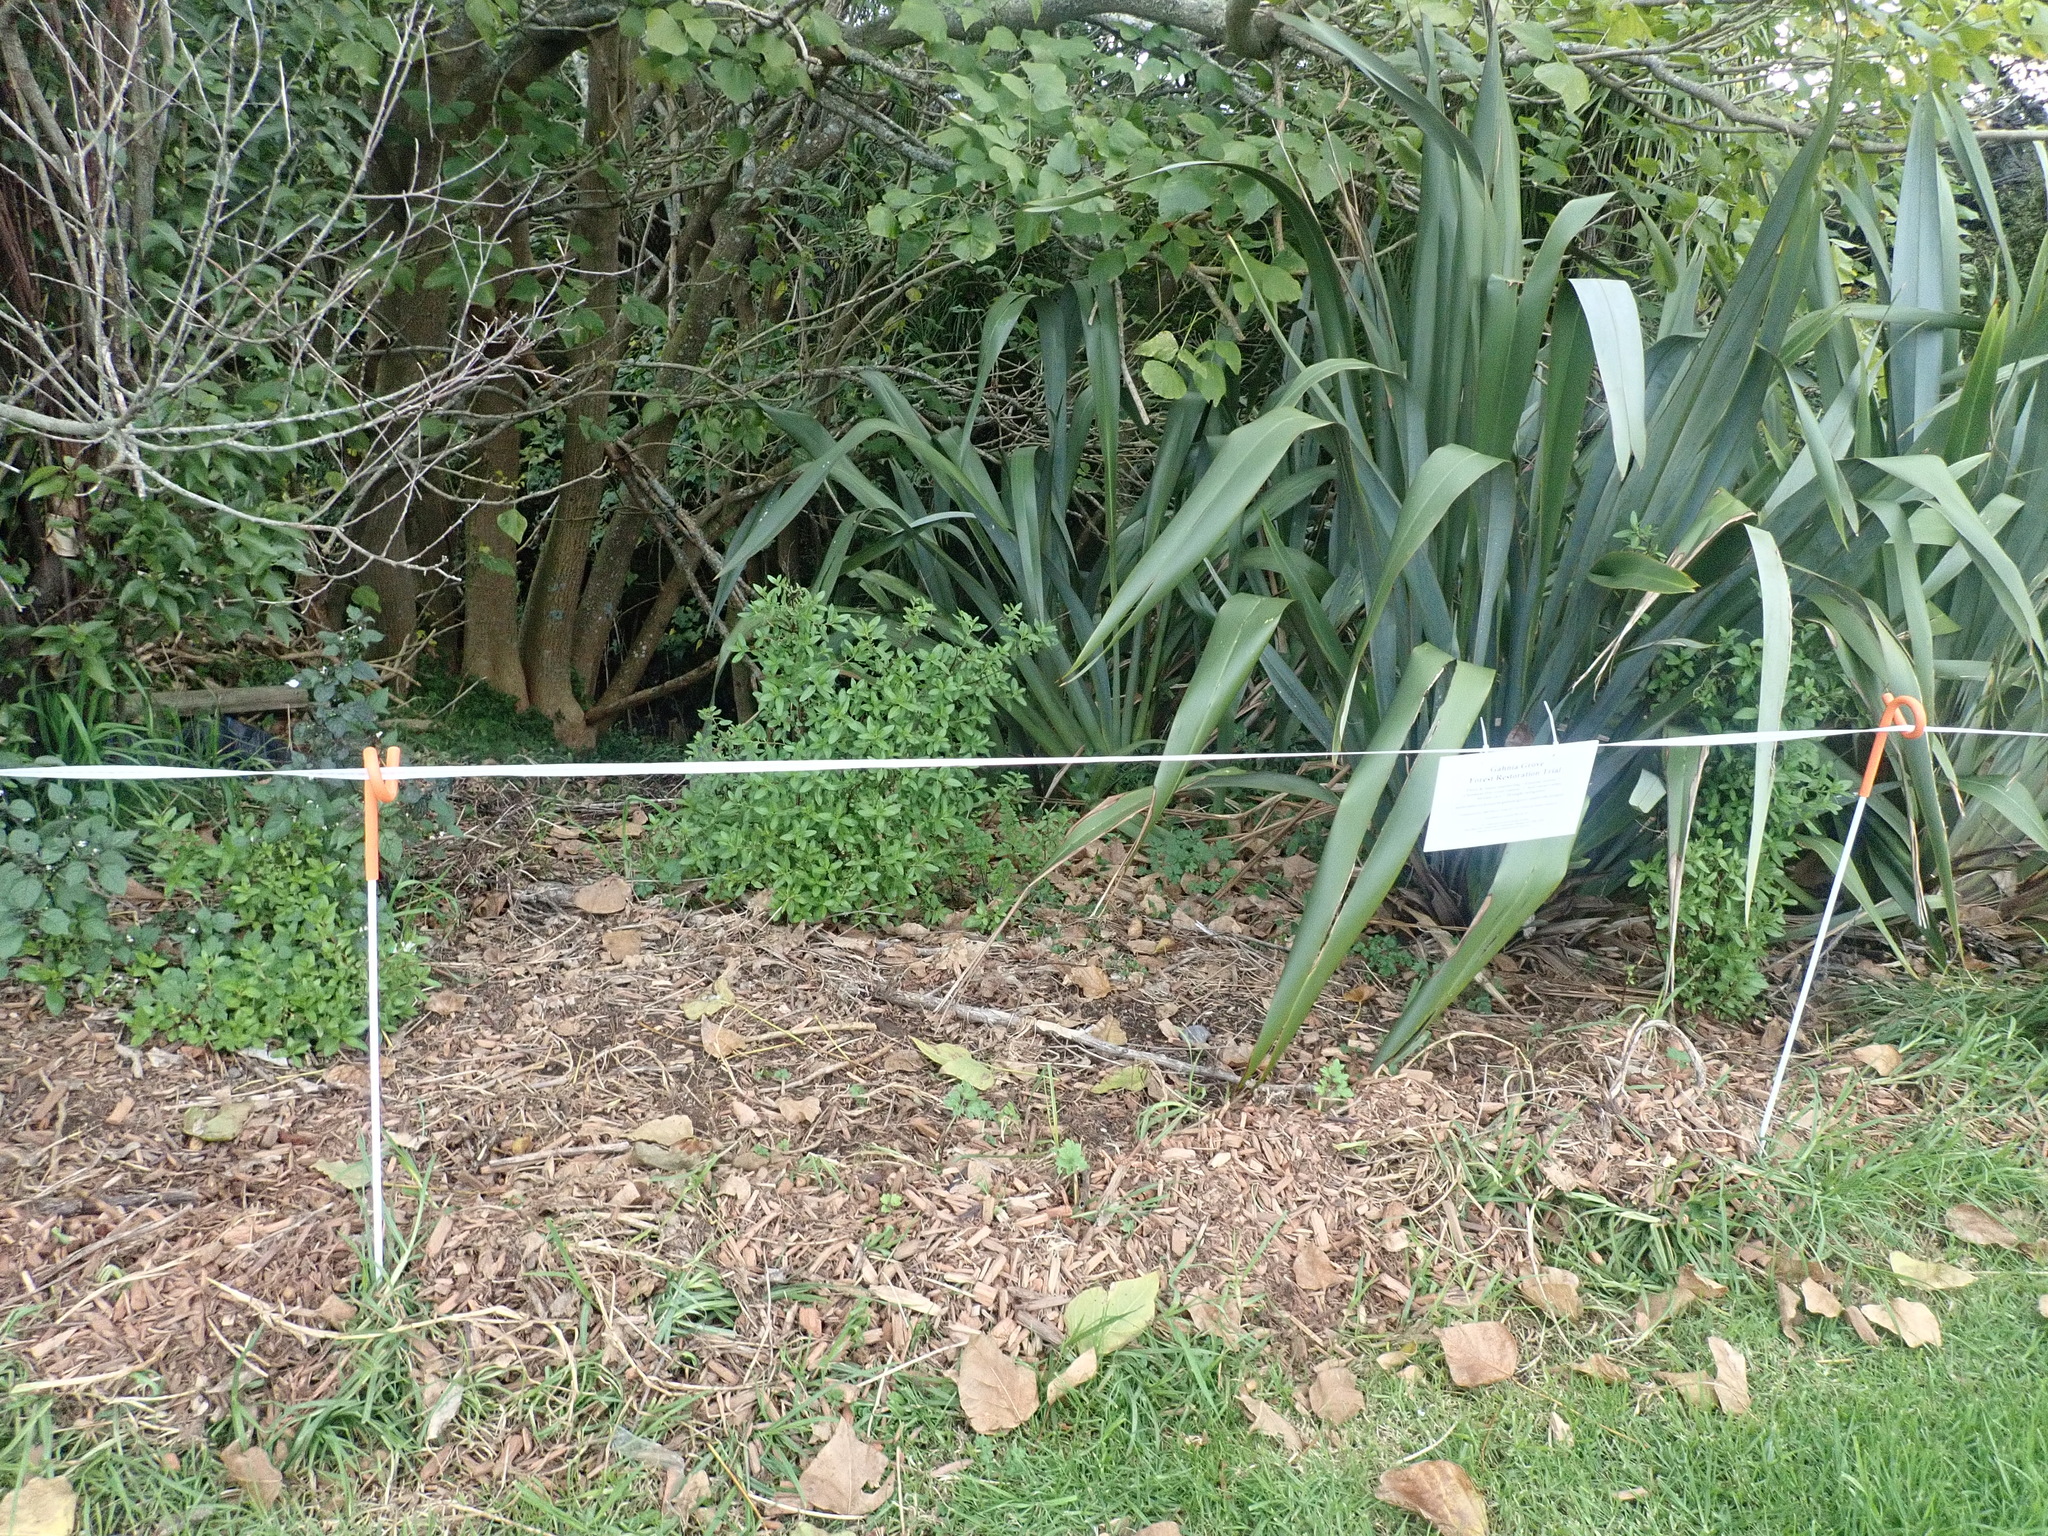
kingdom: Plantae
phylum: Tracheophyta
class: Magnoliopsida
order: Saxifragales
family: Haloragaceae
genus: Haloragis
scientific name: Haloragis erecta
